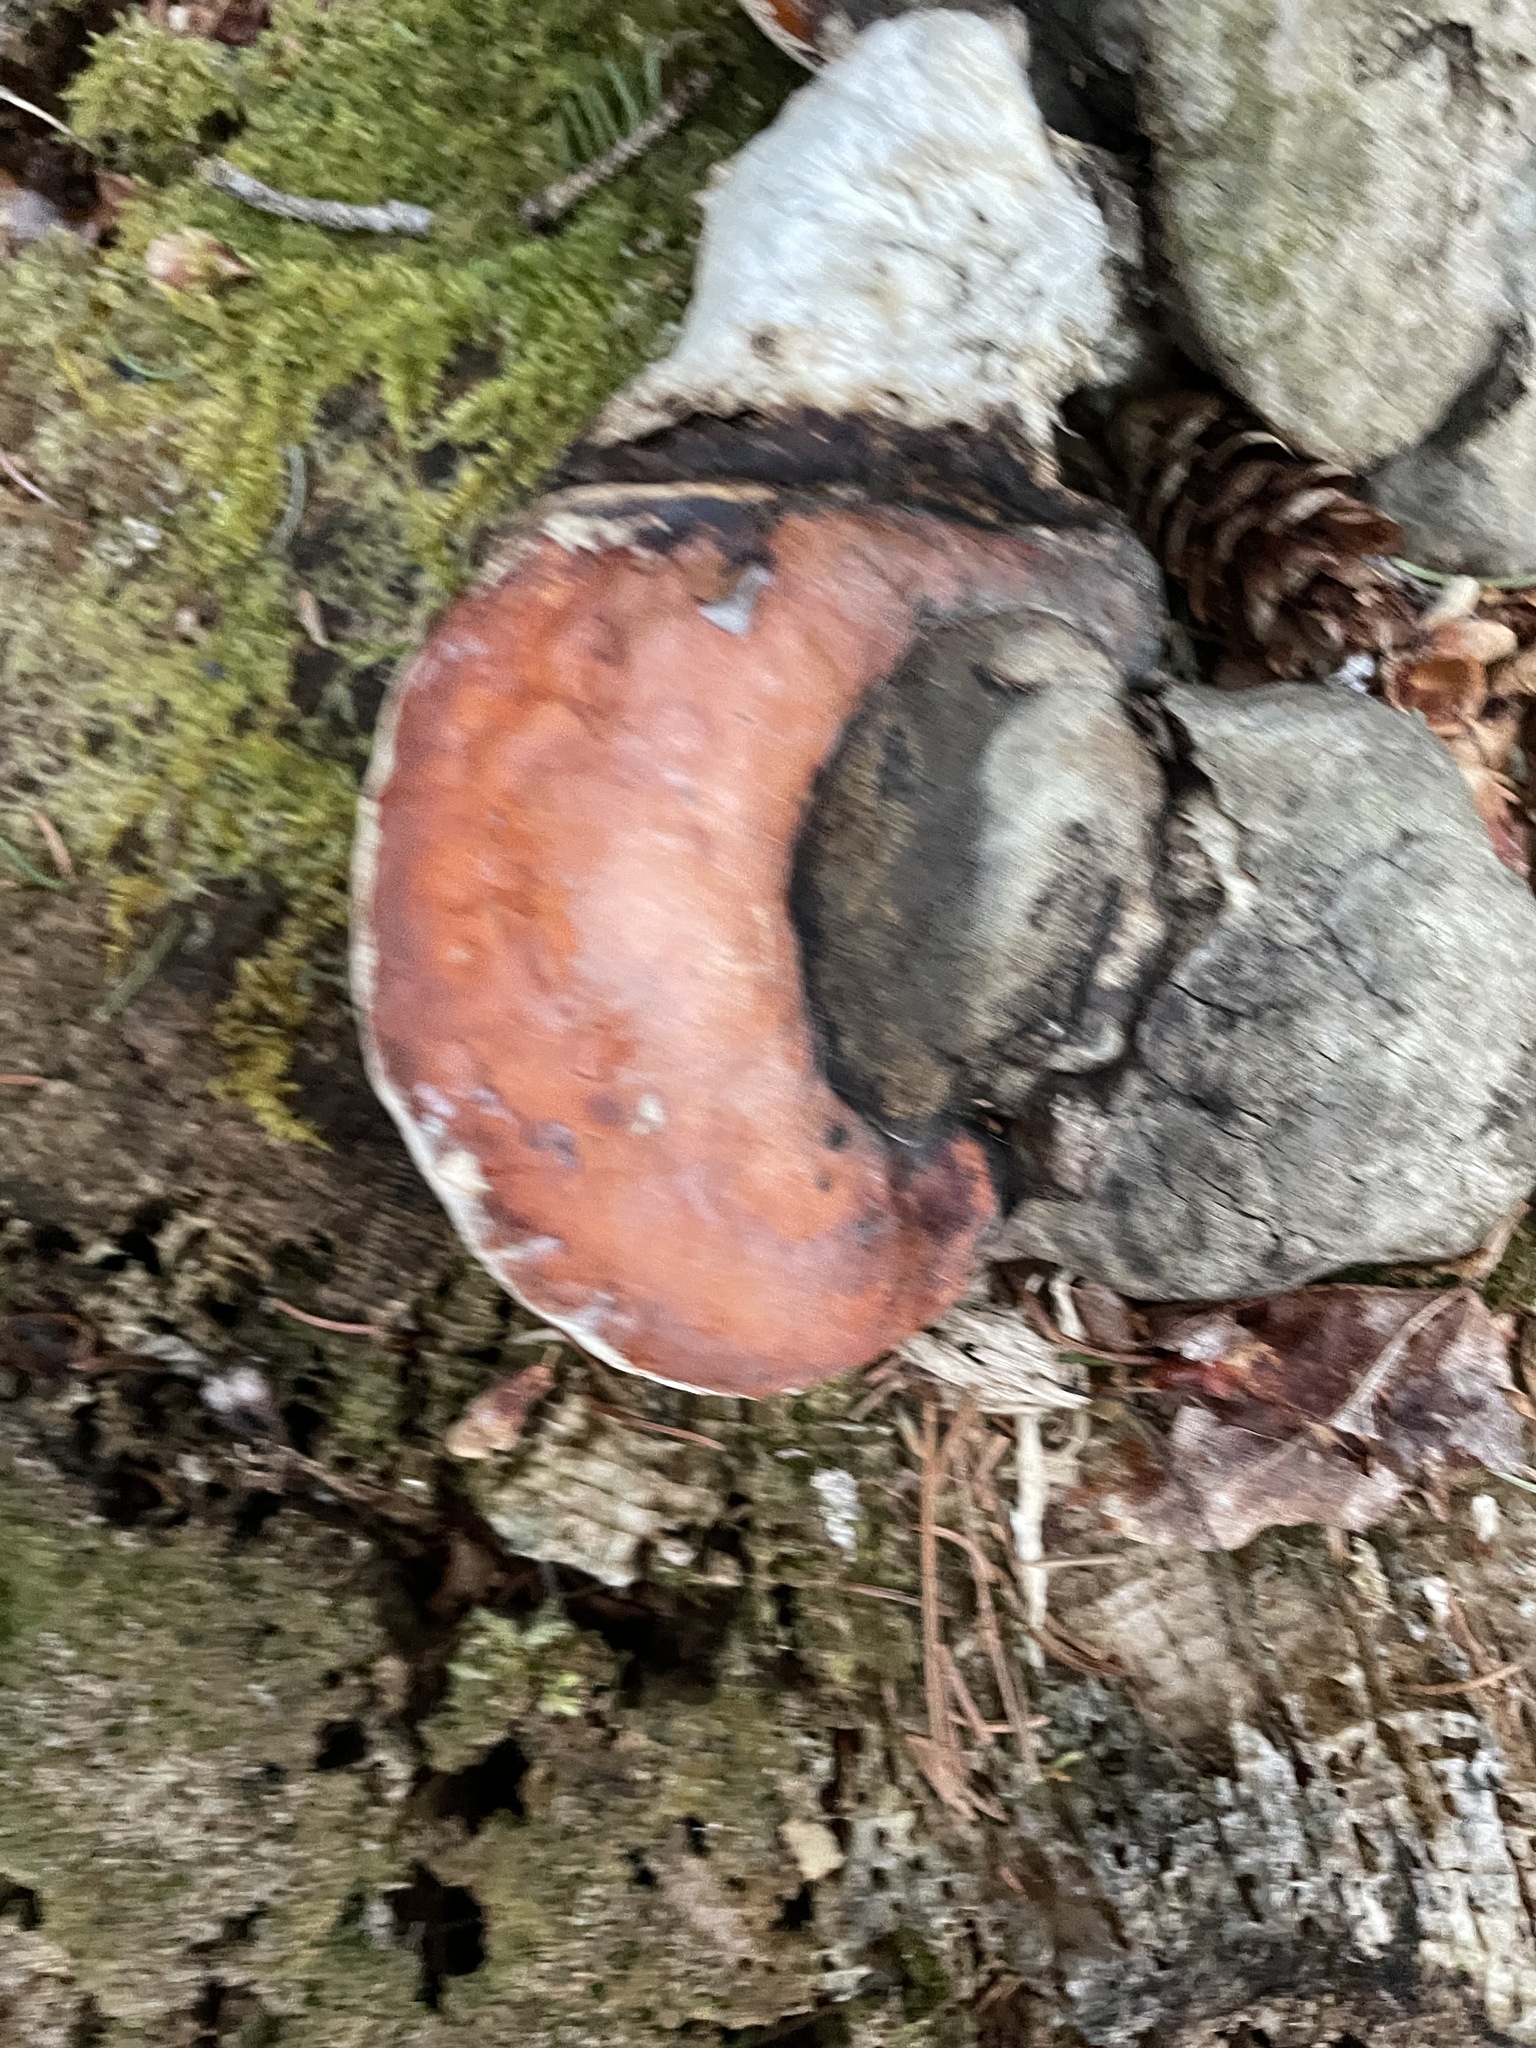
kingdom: Fungi
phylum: Basidiomycota
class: Agaricomycetes
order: Polyporales
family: Fomitopsidaceae
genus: Fomitopsis
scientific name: Fomitopsis mounceae
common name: Northern red belt
